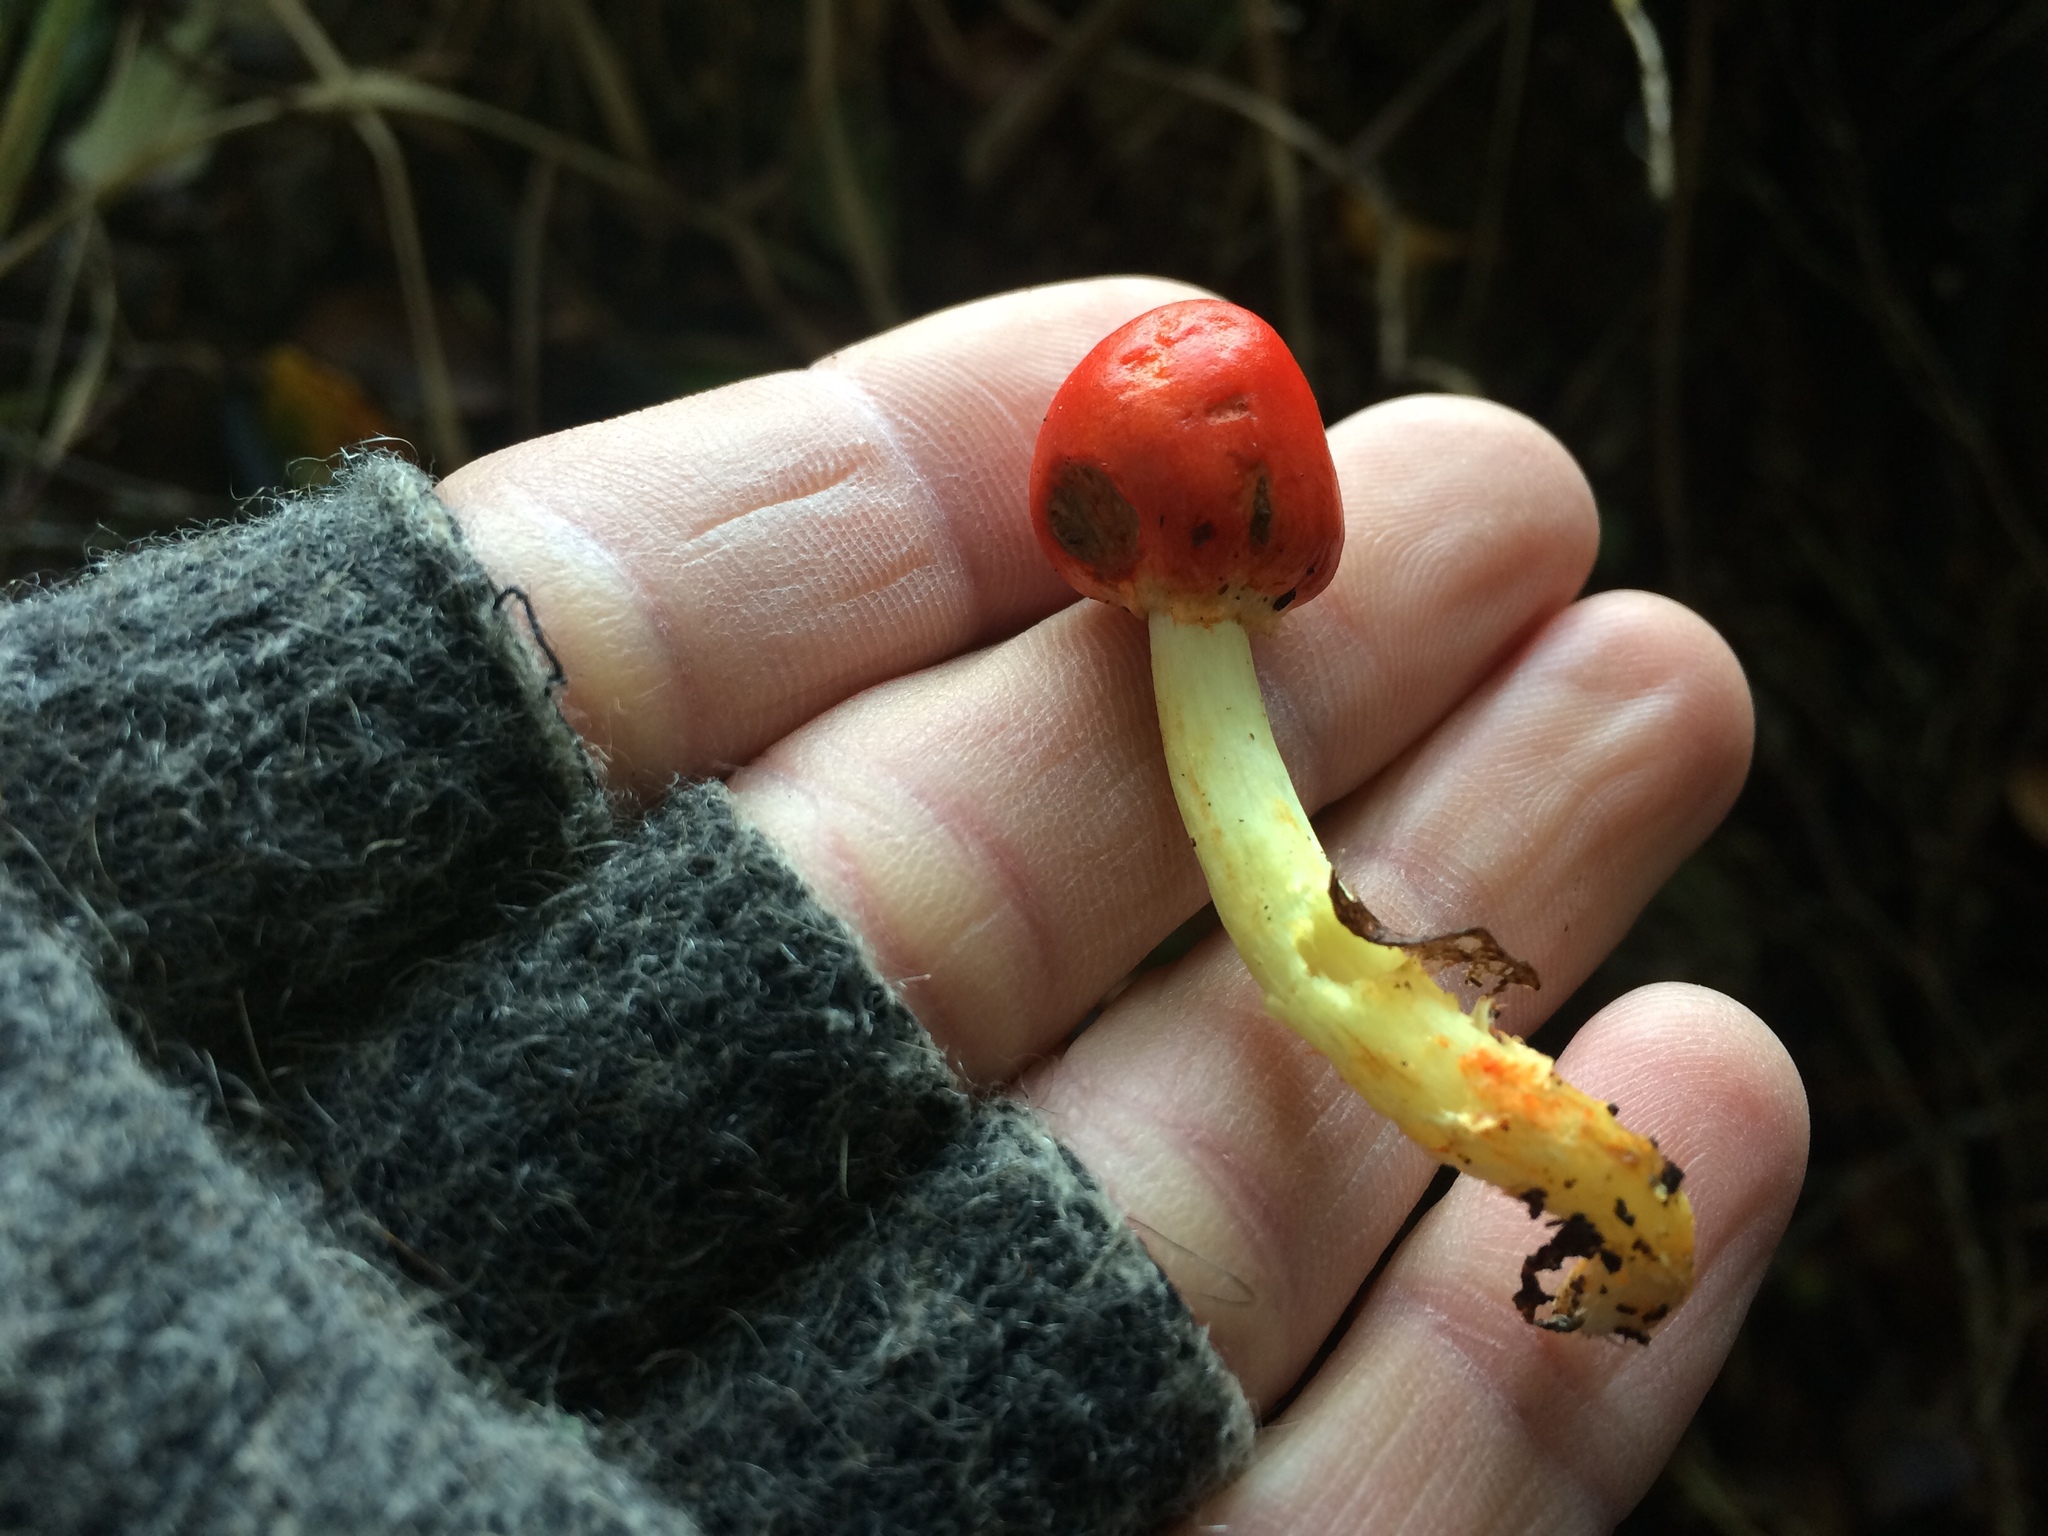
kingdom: Fungi
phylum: Basidiomycota
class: Agaricomycetes
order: Agaricales
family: Strophariaceae
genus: Leratiomyces
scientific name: Leratiomyces erythrocephalus
